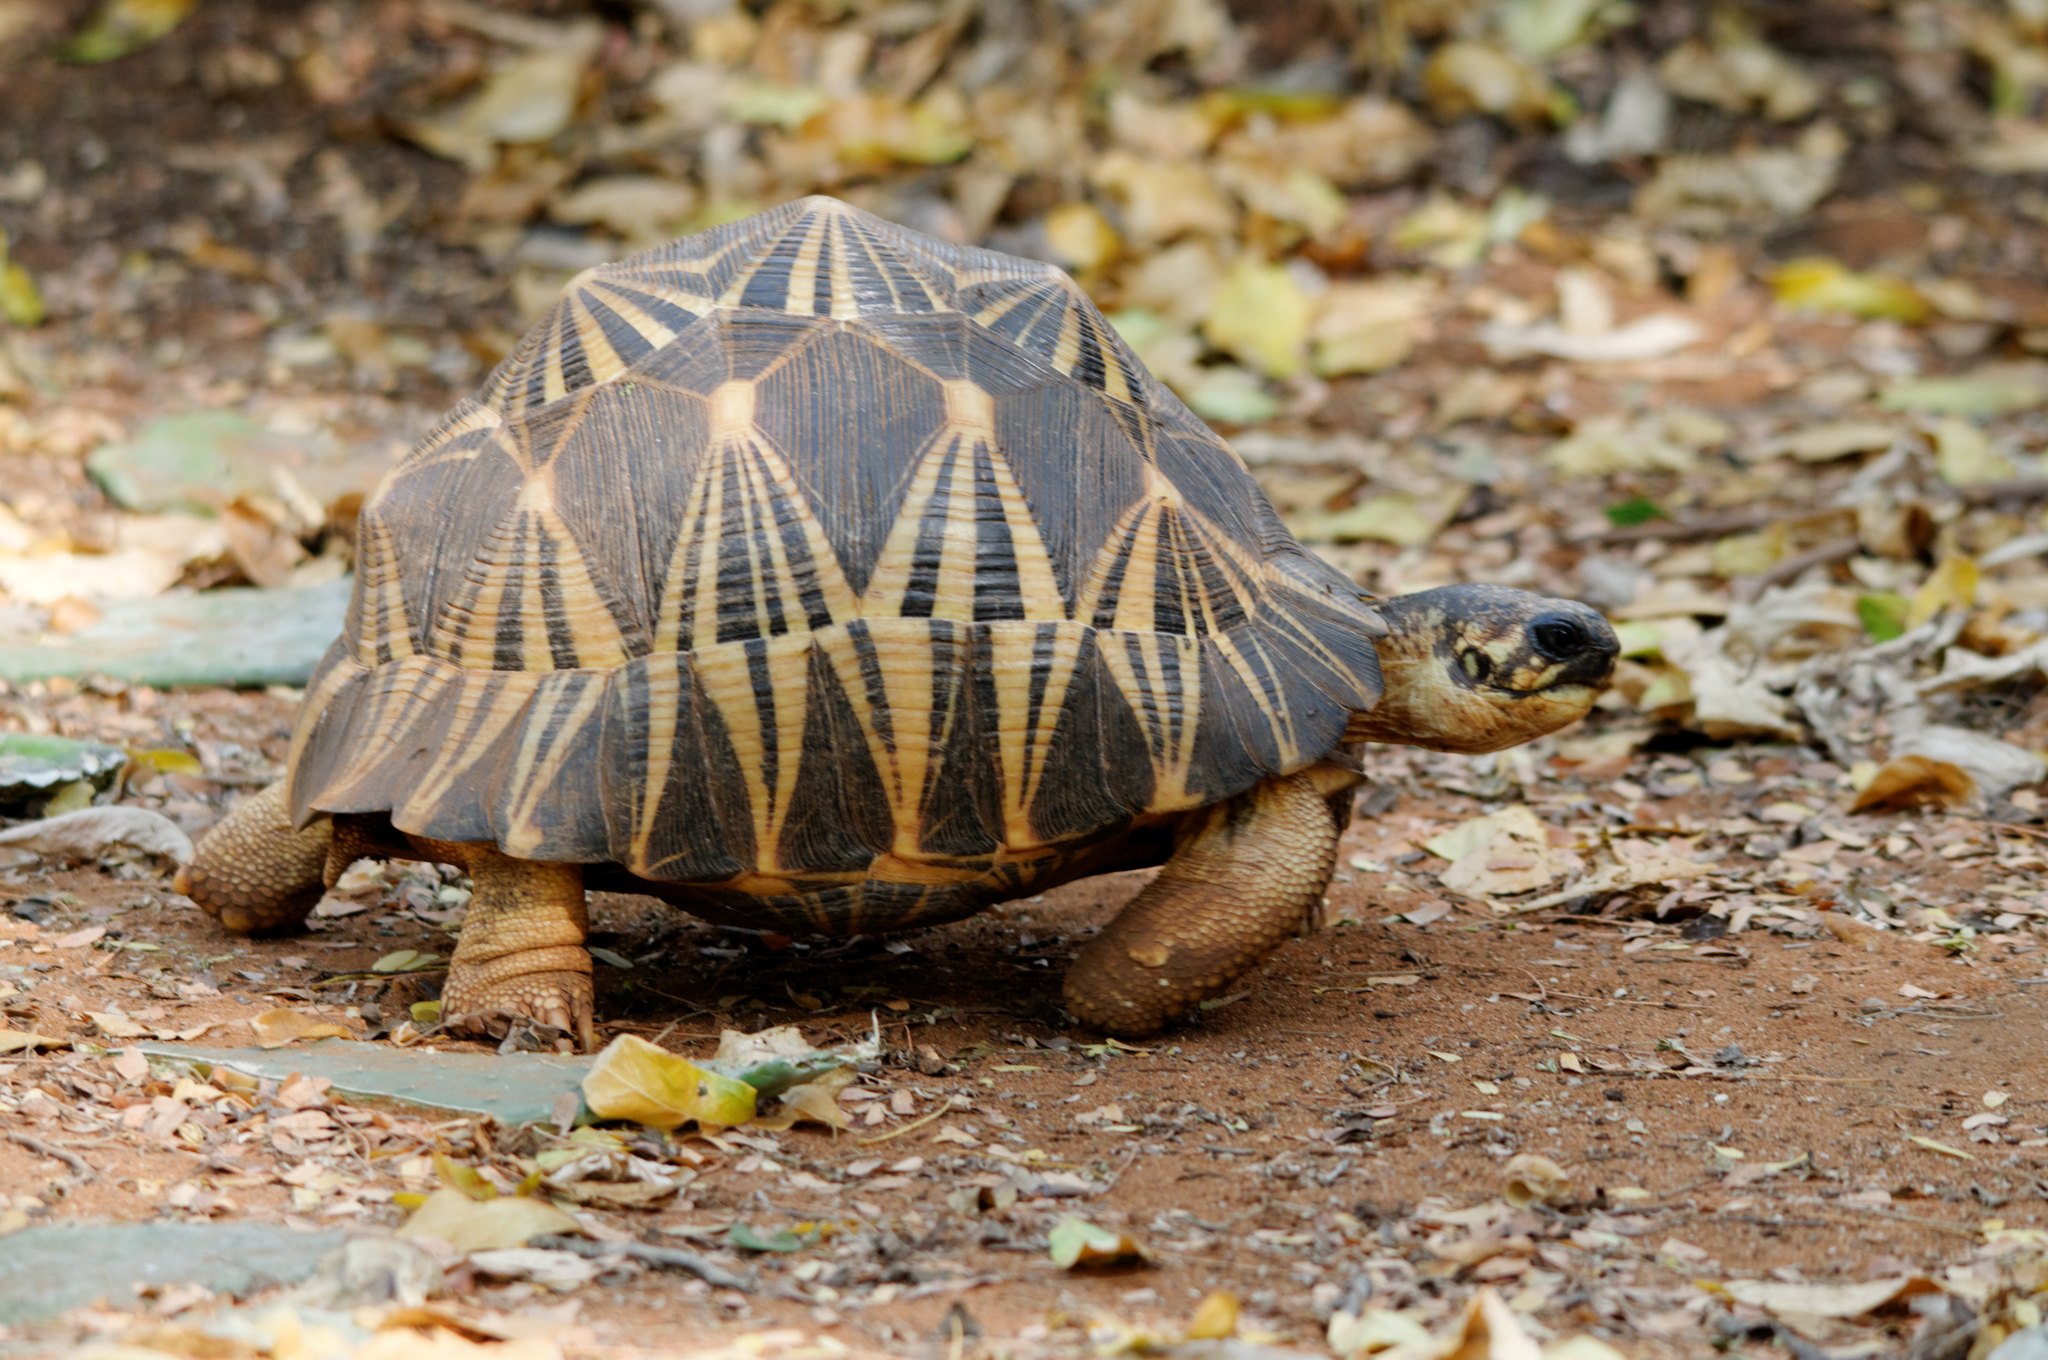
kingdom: Animalia
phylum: Chordata
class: Testudines
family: Testudinidae
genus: Astrochelys
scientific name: Astrochelys radiata
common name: Radiated tortoise
